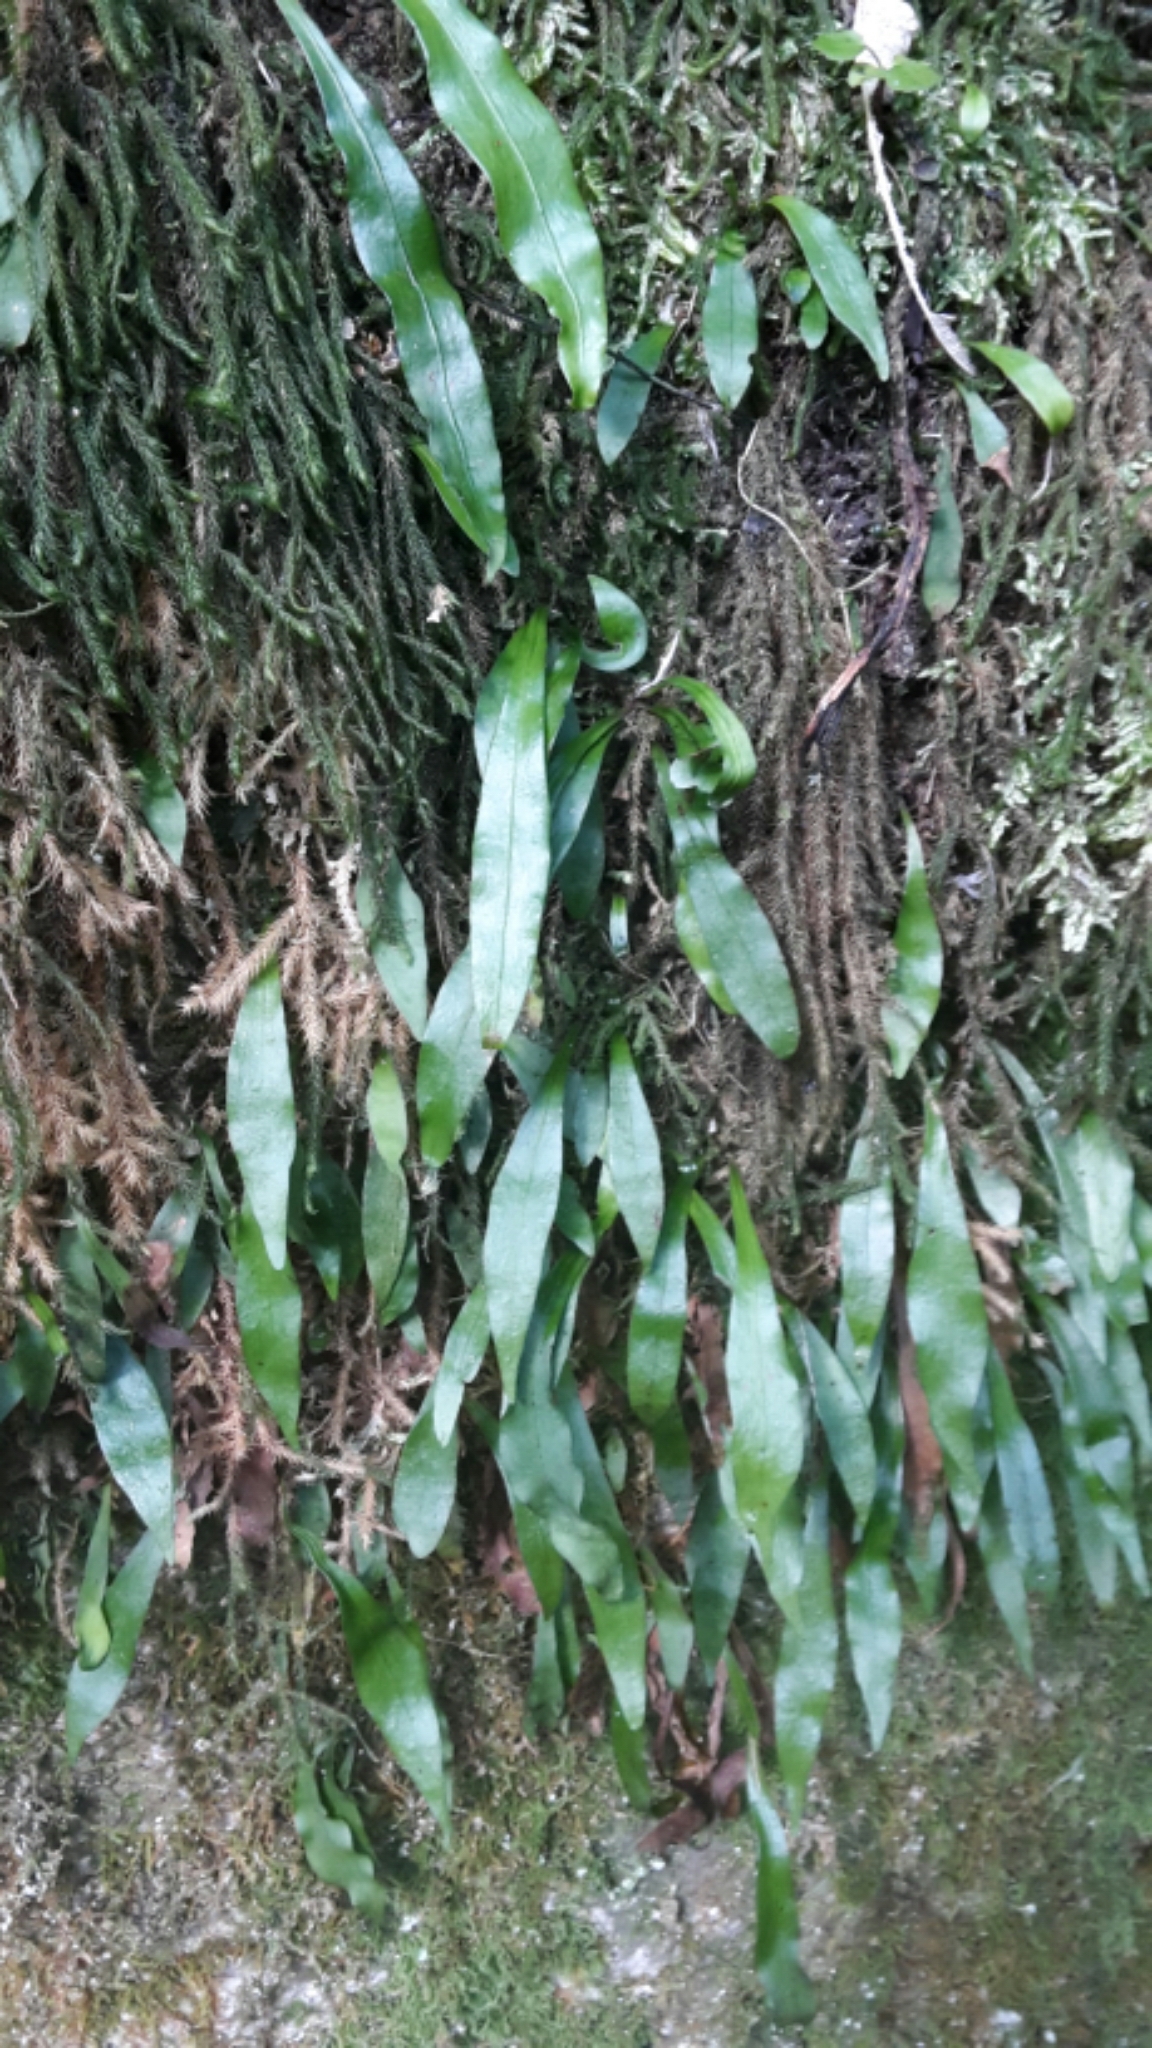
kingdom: Plantae
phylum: Tracheophyta
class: Polypodiopsida
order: Polypodiales
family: Polypodiaceae
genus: Loxogramme
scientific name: Loxogramme dictyopteris
